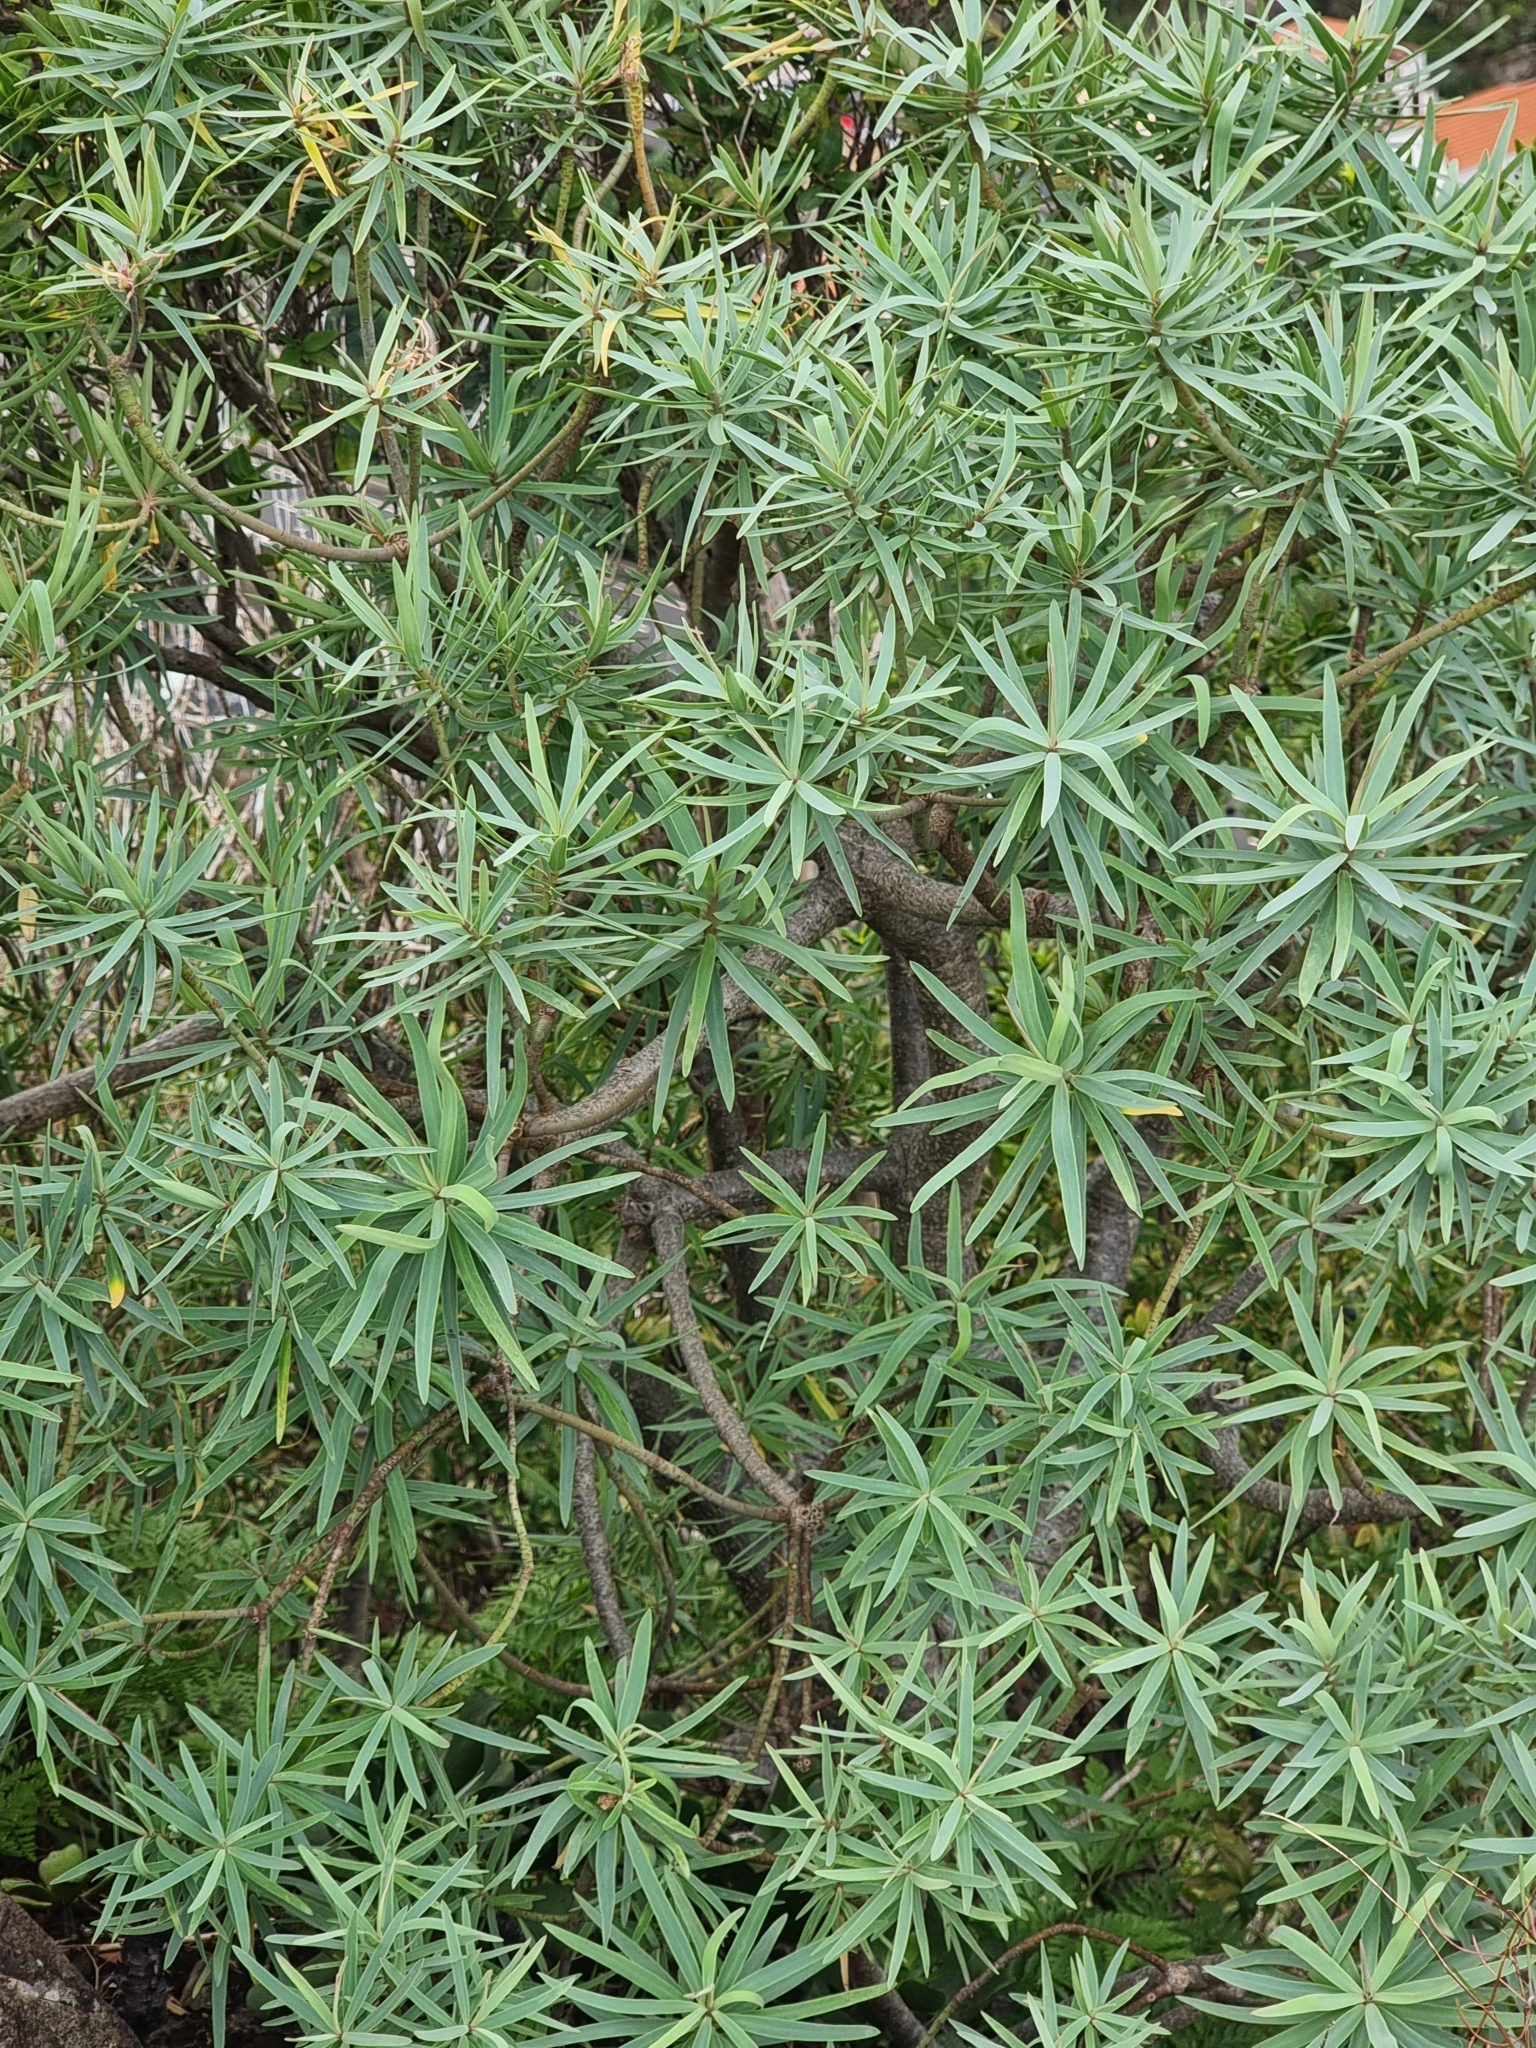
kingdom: Plantae
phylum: Tracheophyta
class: Magnoliopsida
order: Malpighiales
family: Euphorbiaceae
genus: Euphorbia
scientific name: Euphorbia piscatoria
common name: Fish-stunning spurge
